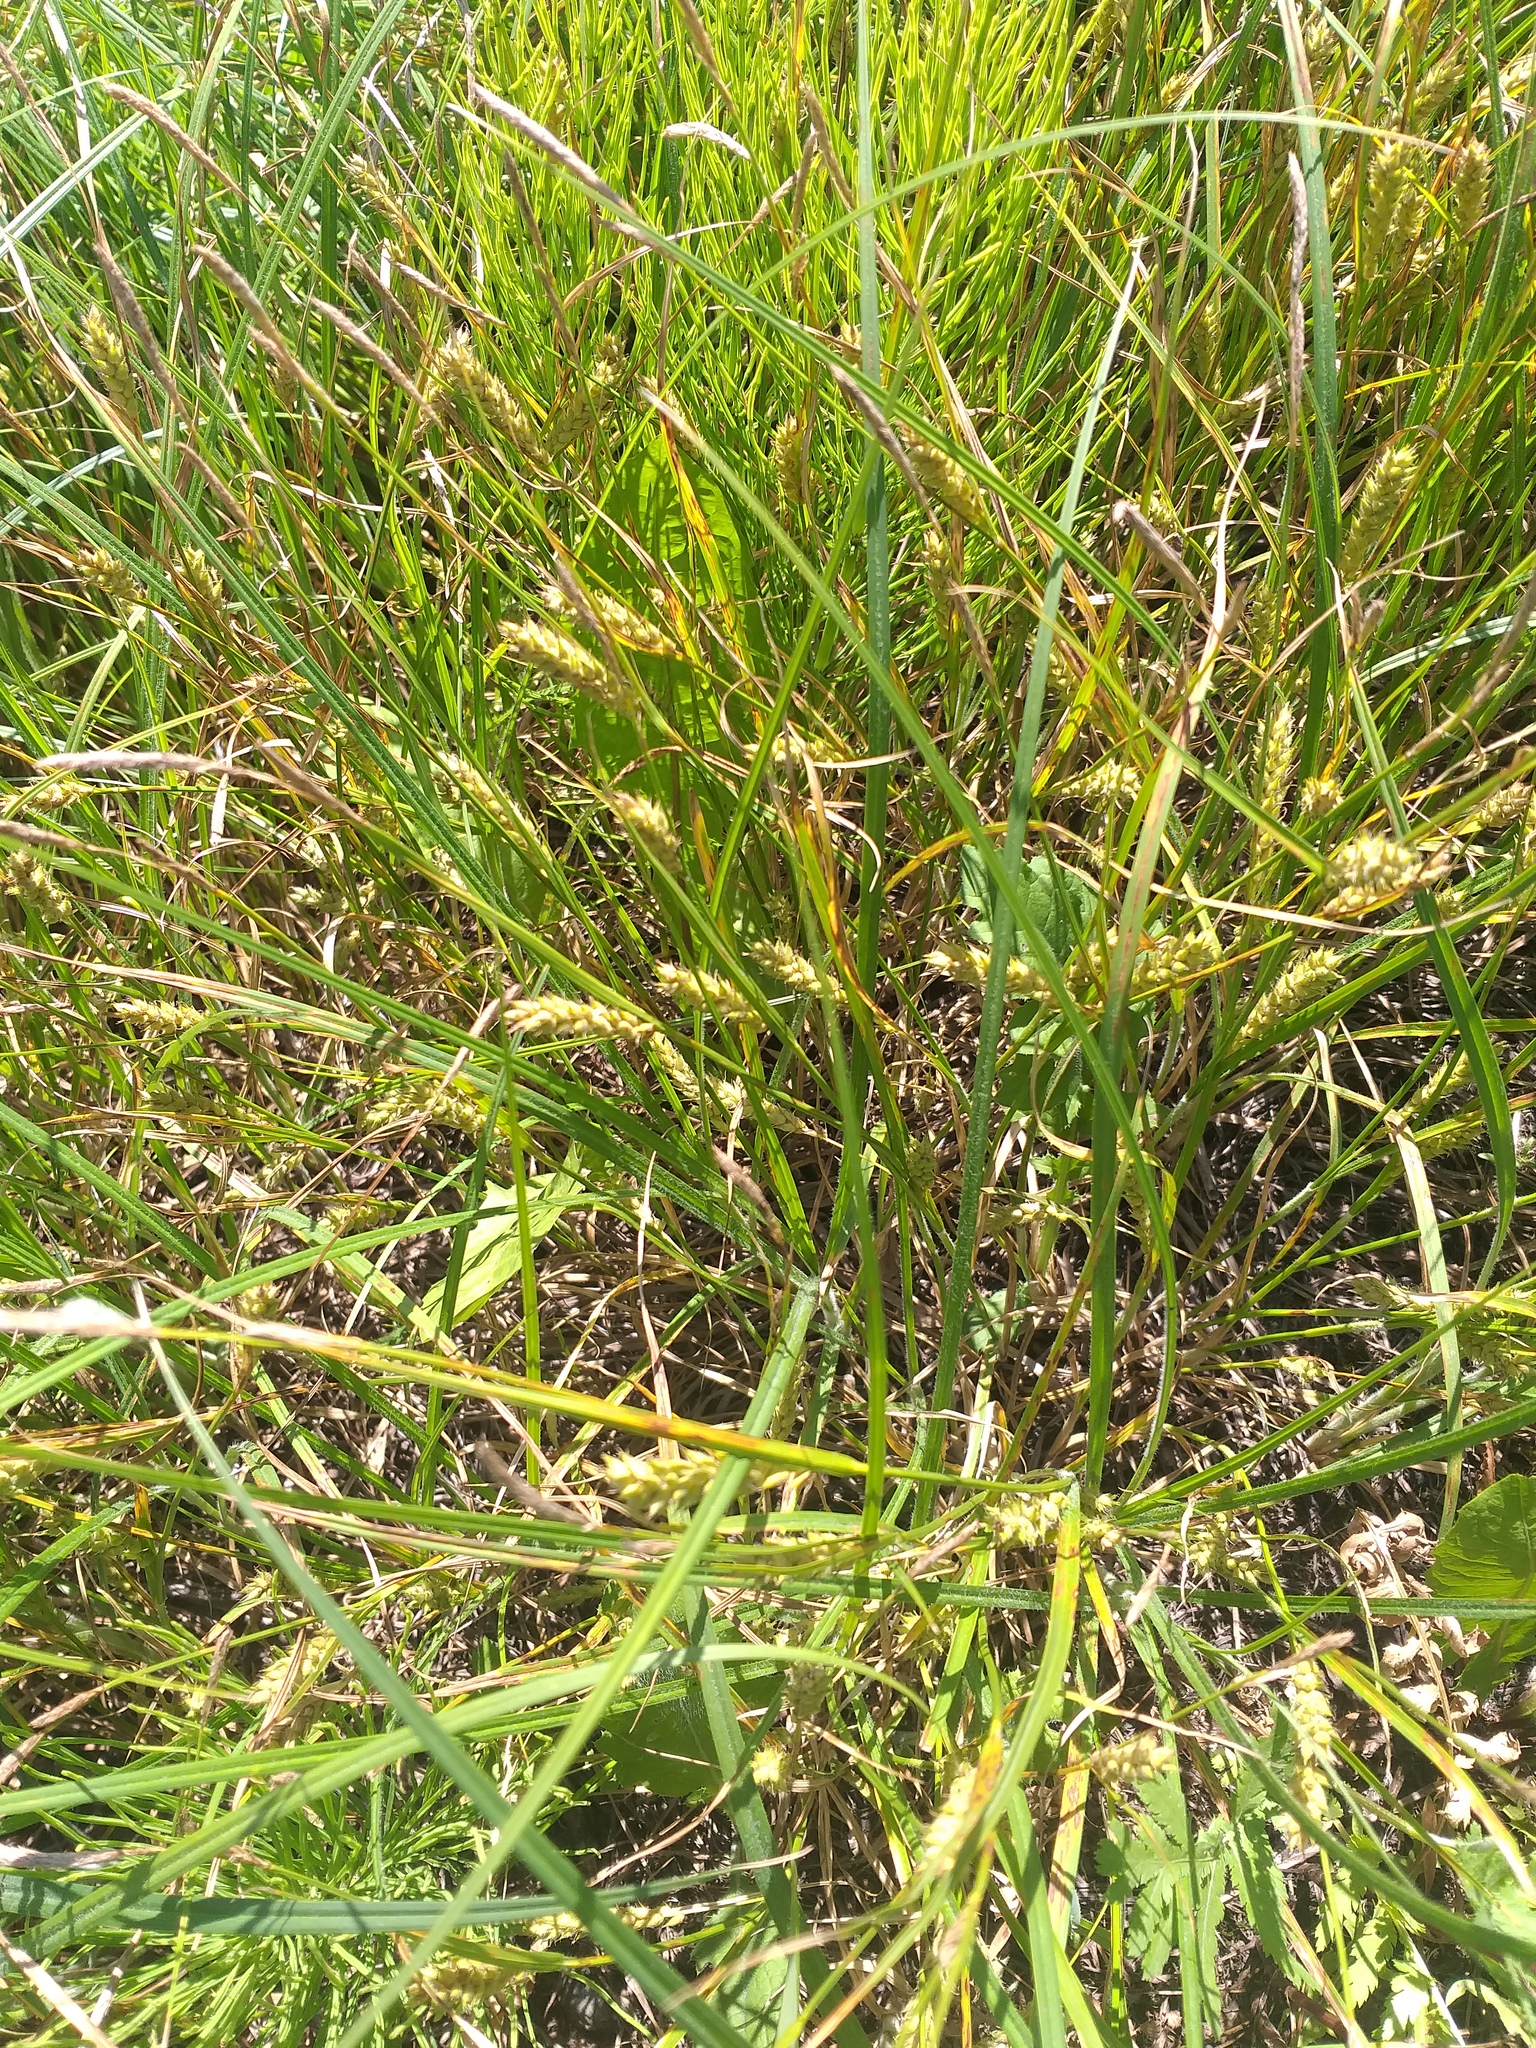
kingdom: Plantae
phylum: Tracheophyta
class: Liliopsida
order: Poales
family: Cyperaceae
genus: Carex
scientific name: Carex hirta
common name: Hairy sedge
